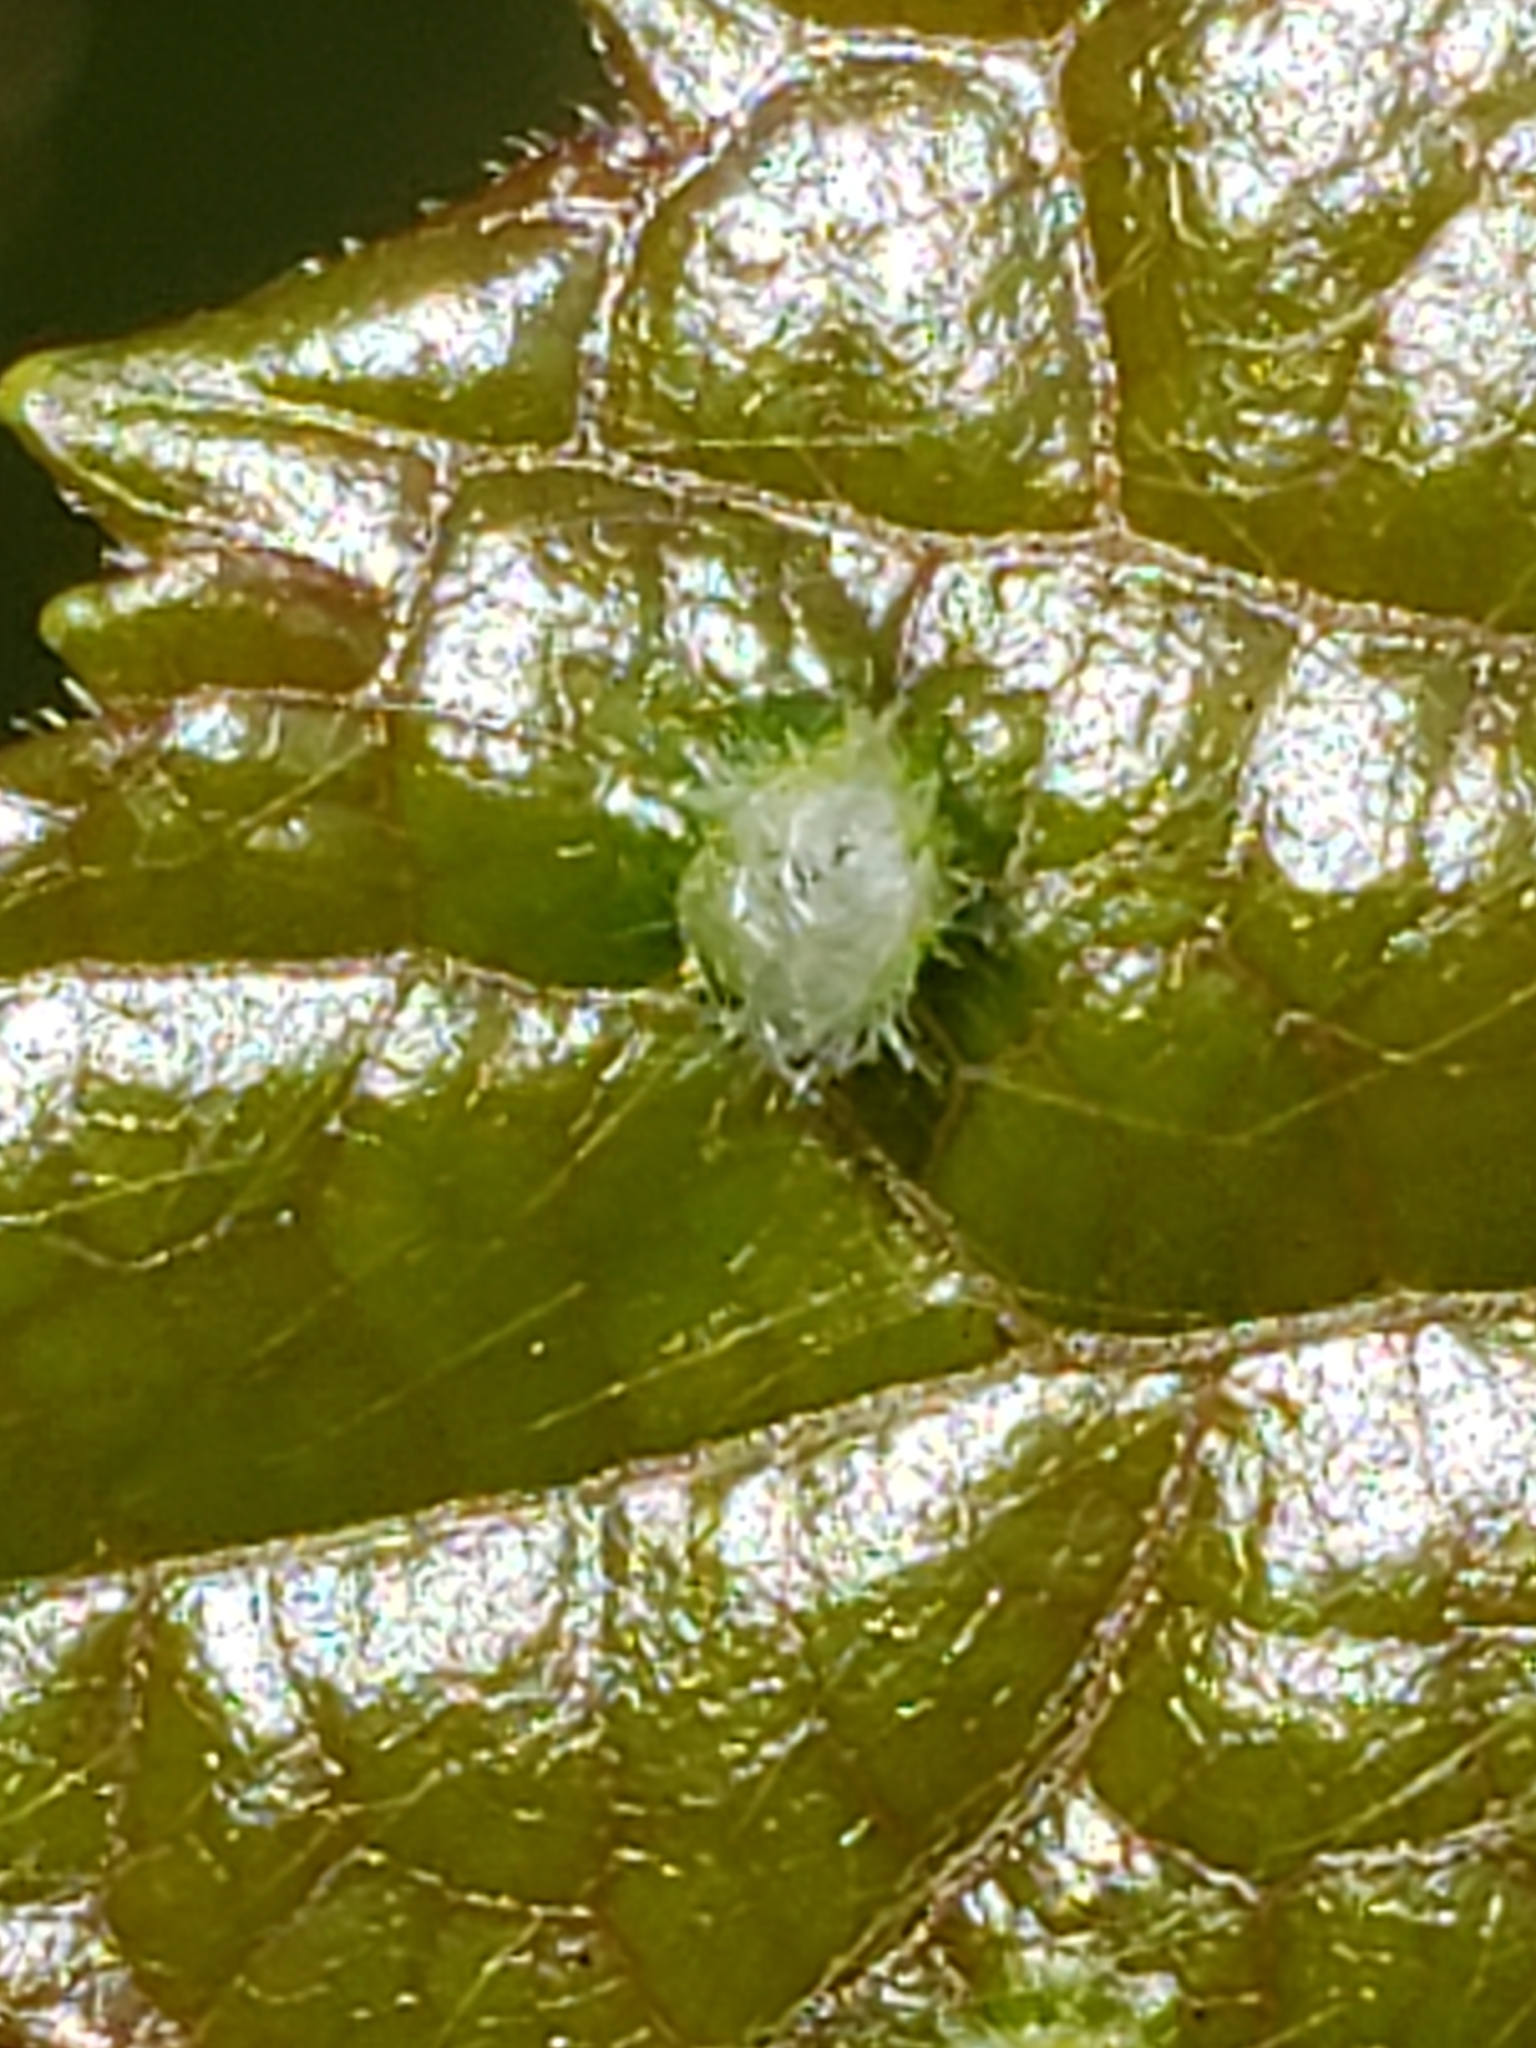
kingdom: Animalia
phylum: Arthropoda
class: Insecta
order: Hemiptera
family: Phylloxeridae
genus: Daktulosphaira
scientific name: Daktulosphaira vitifoliae
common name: Grape phylloxera
